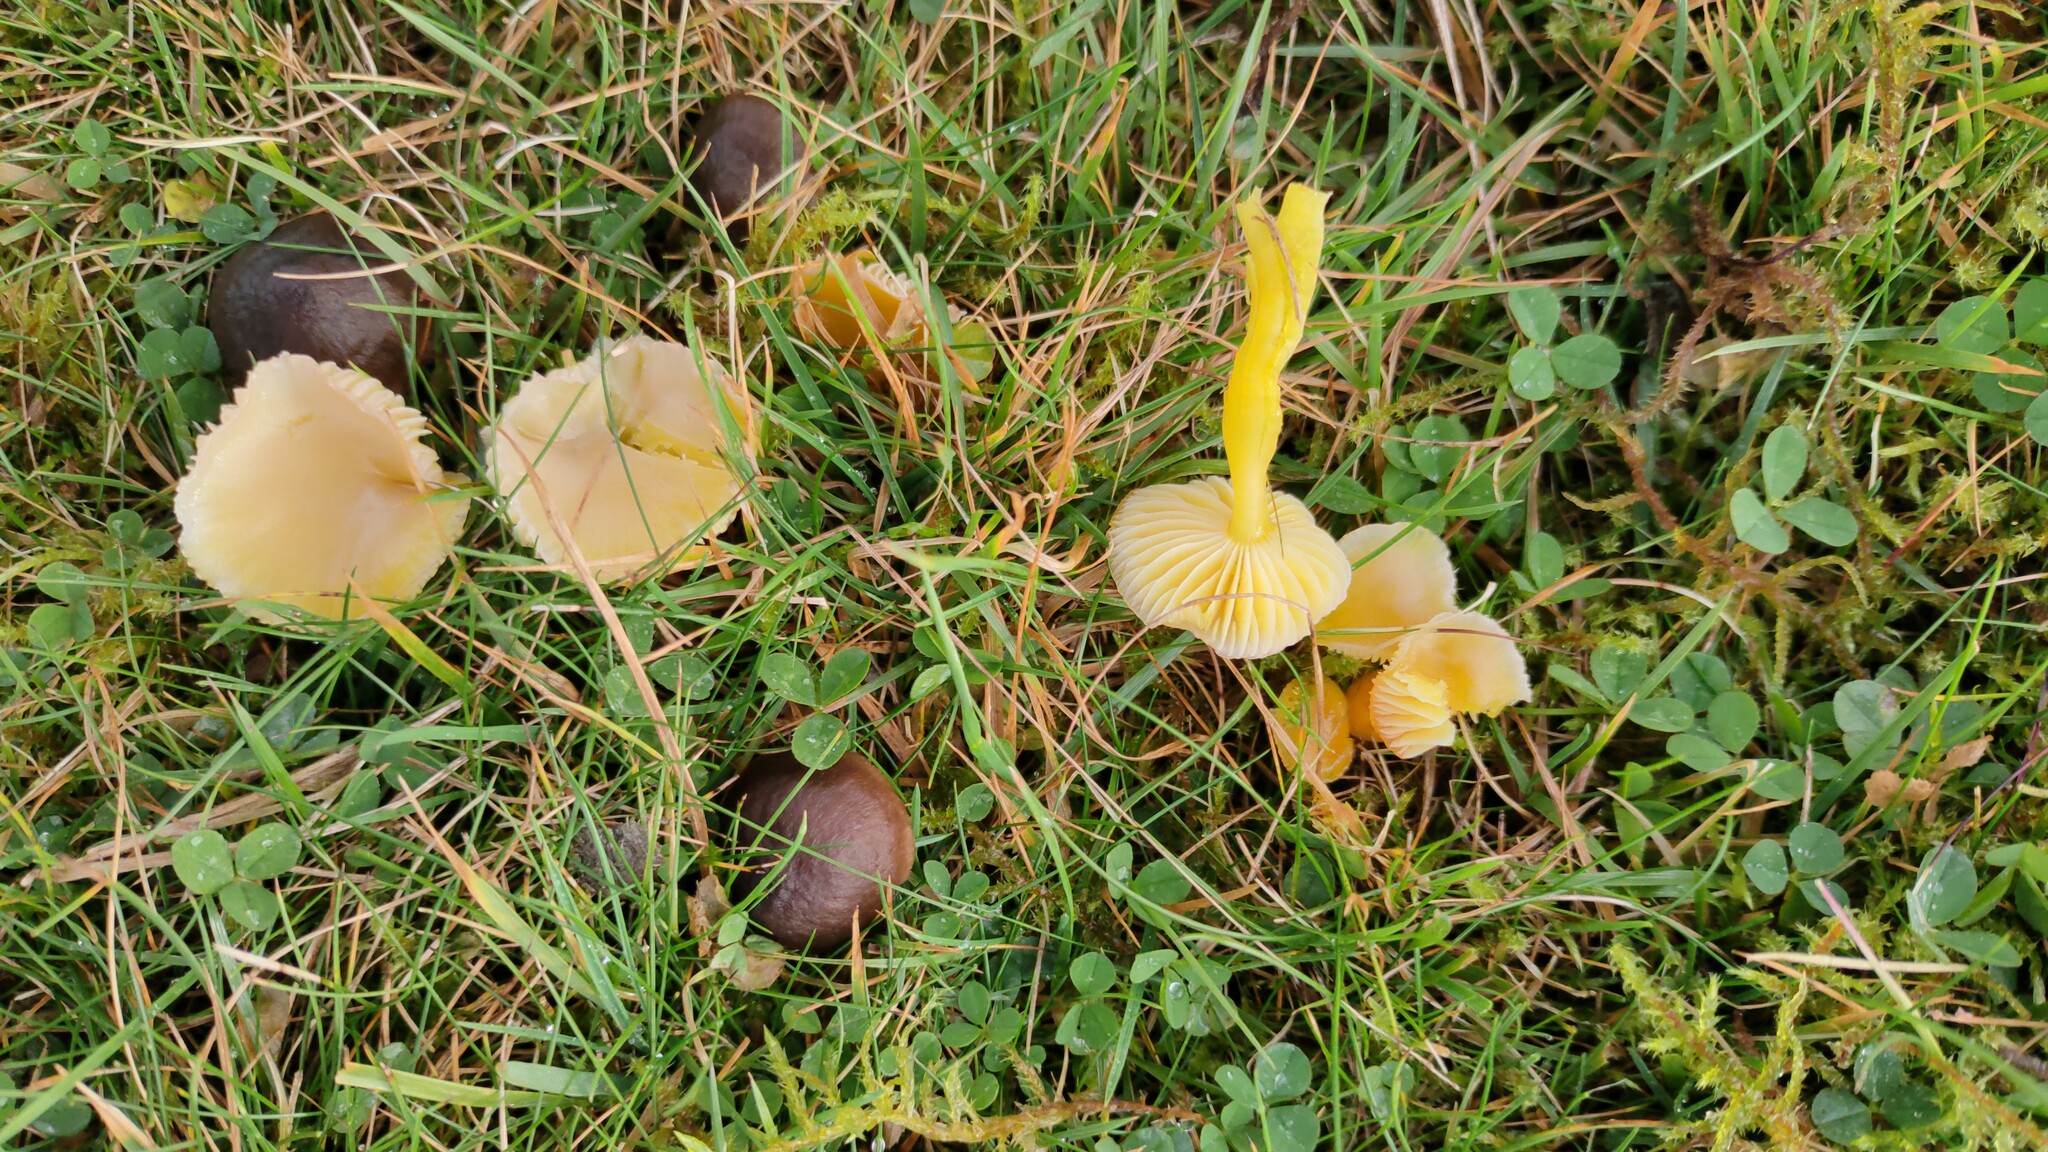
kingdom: Fungi
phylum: Basidiomycota
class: Agaricomycetes
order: Agaricales
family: Hygrophoraceae
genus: Hygrocybe
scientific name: Hygrocybe ceracea
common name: Butter waxcap
